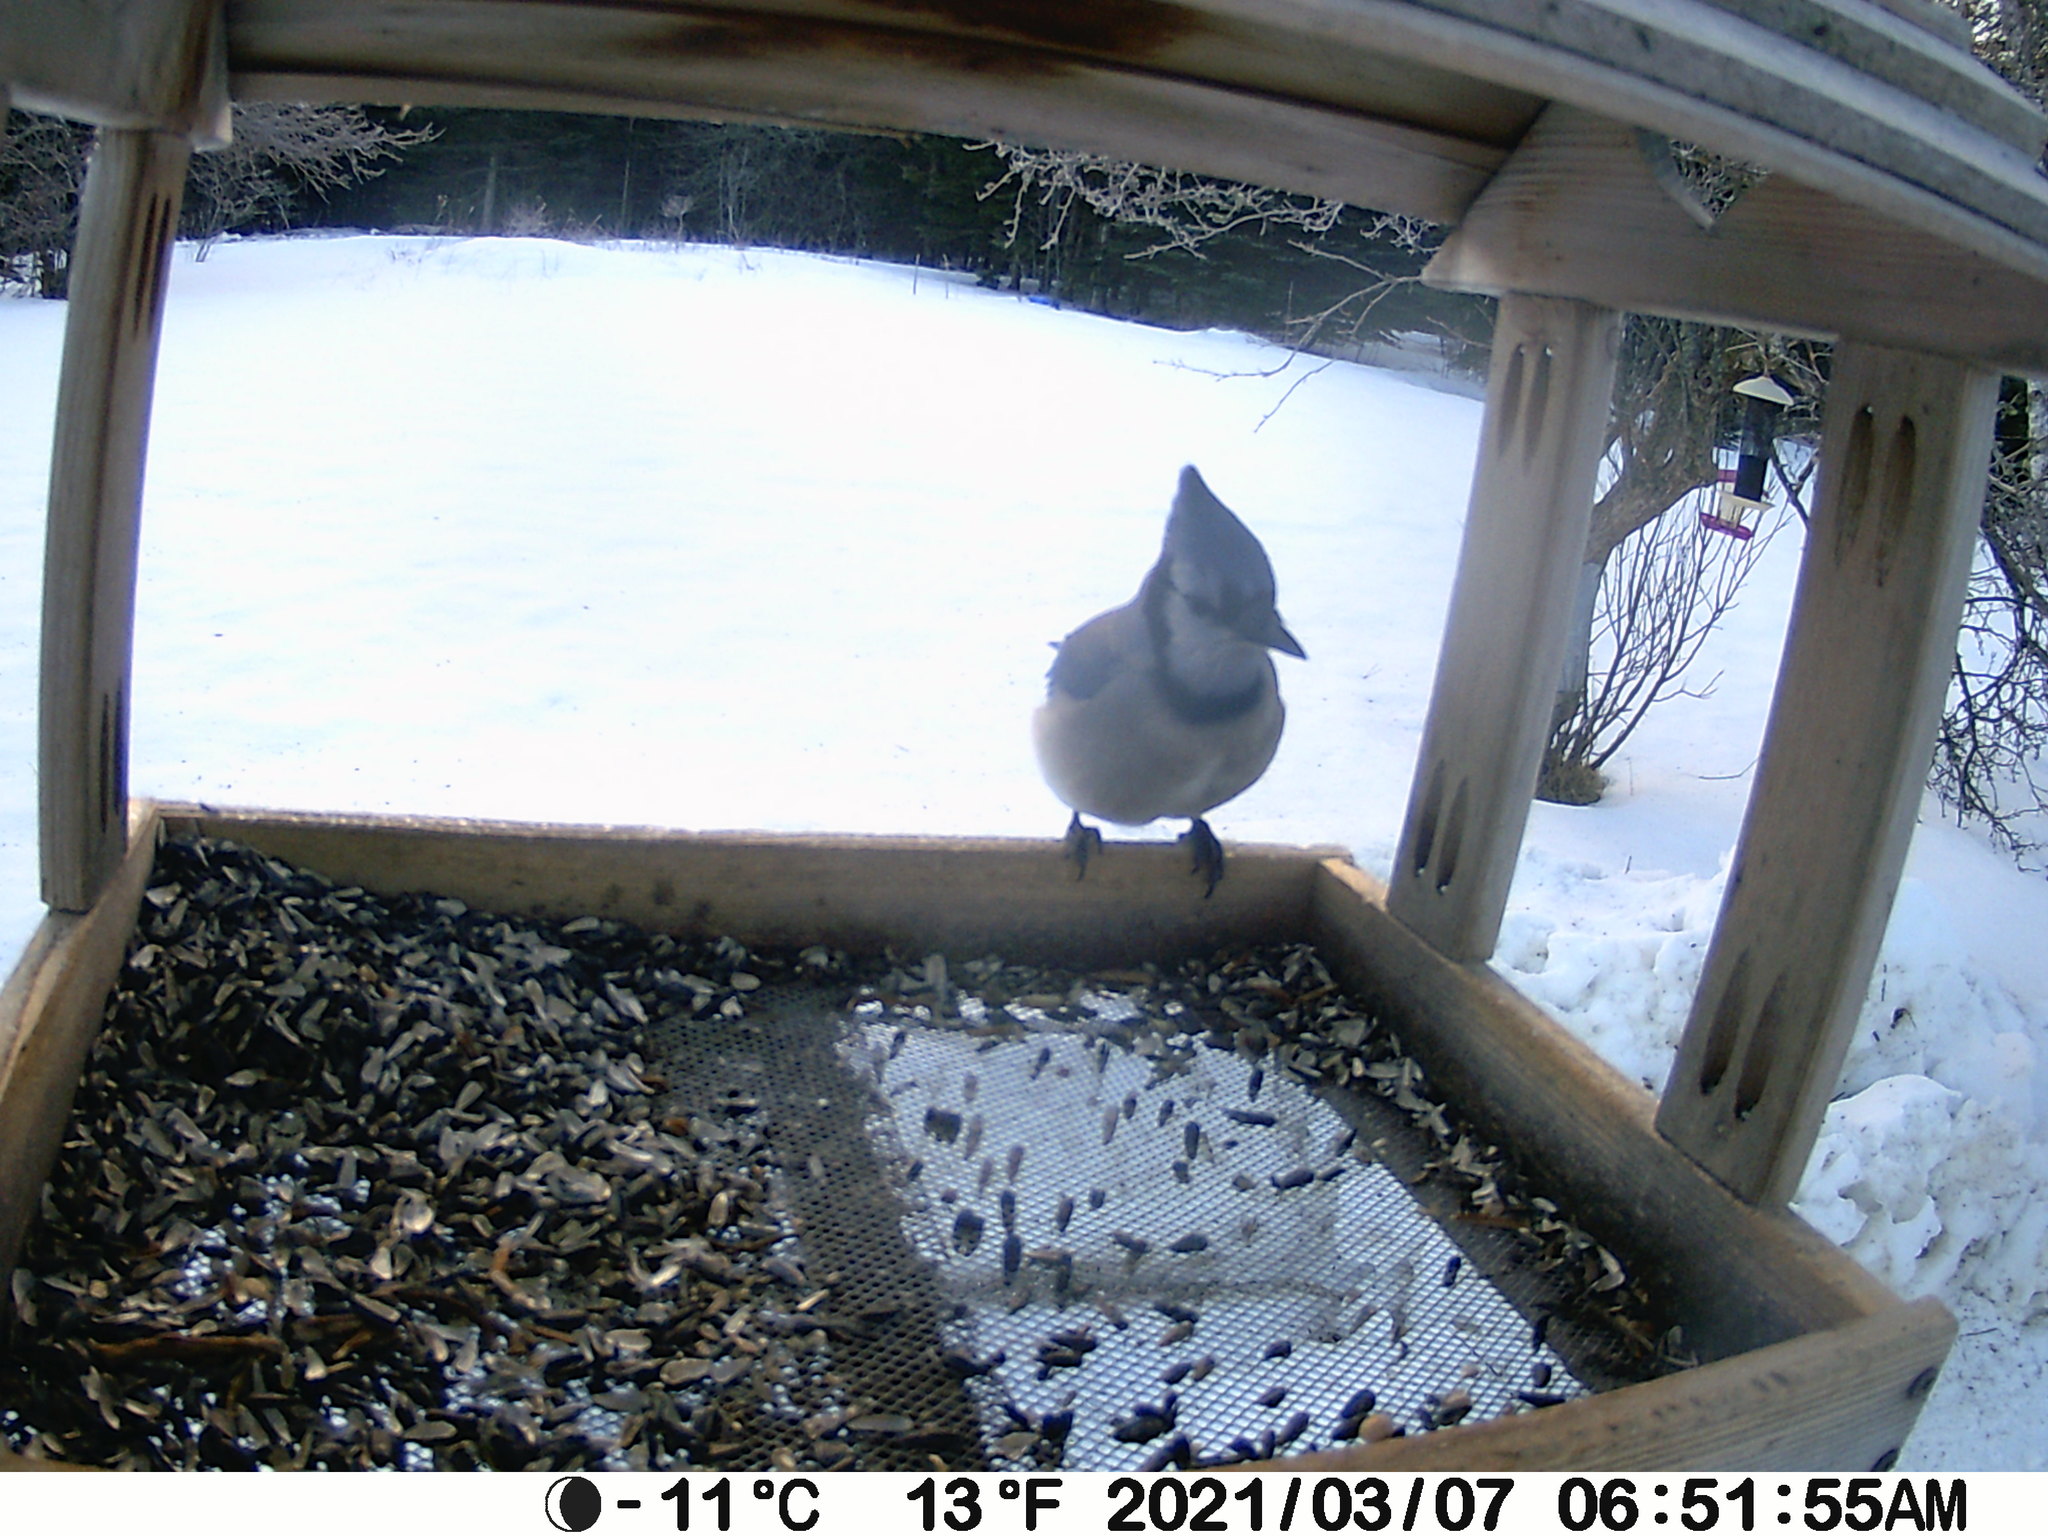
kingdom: Animalia
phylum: Chordata
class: Aves
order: Passeriformes
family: Corvidae
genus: Cyanocitta
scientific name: Cyanocitta cristata
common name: Blue jay
